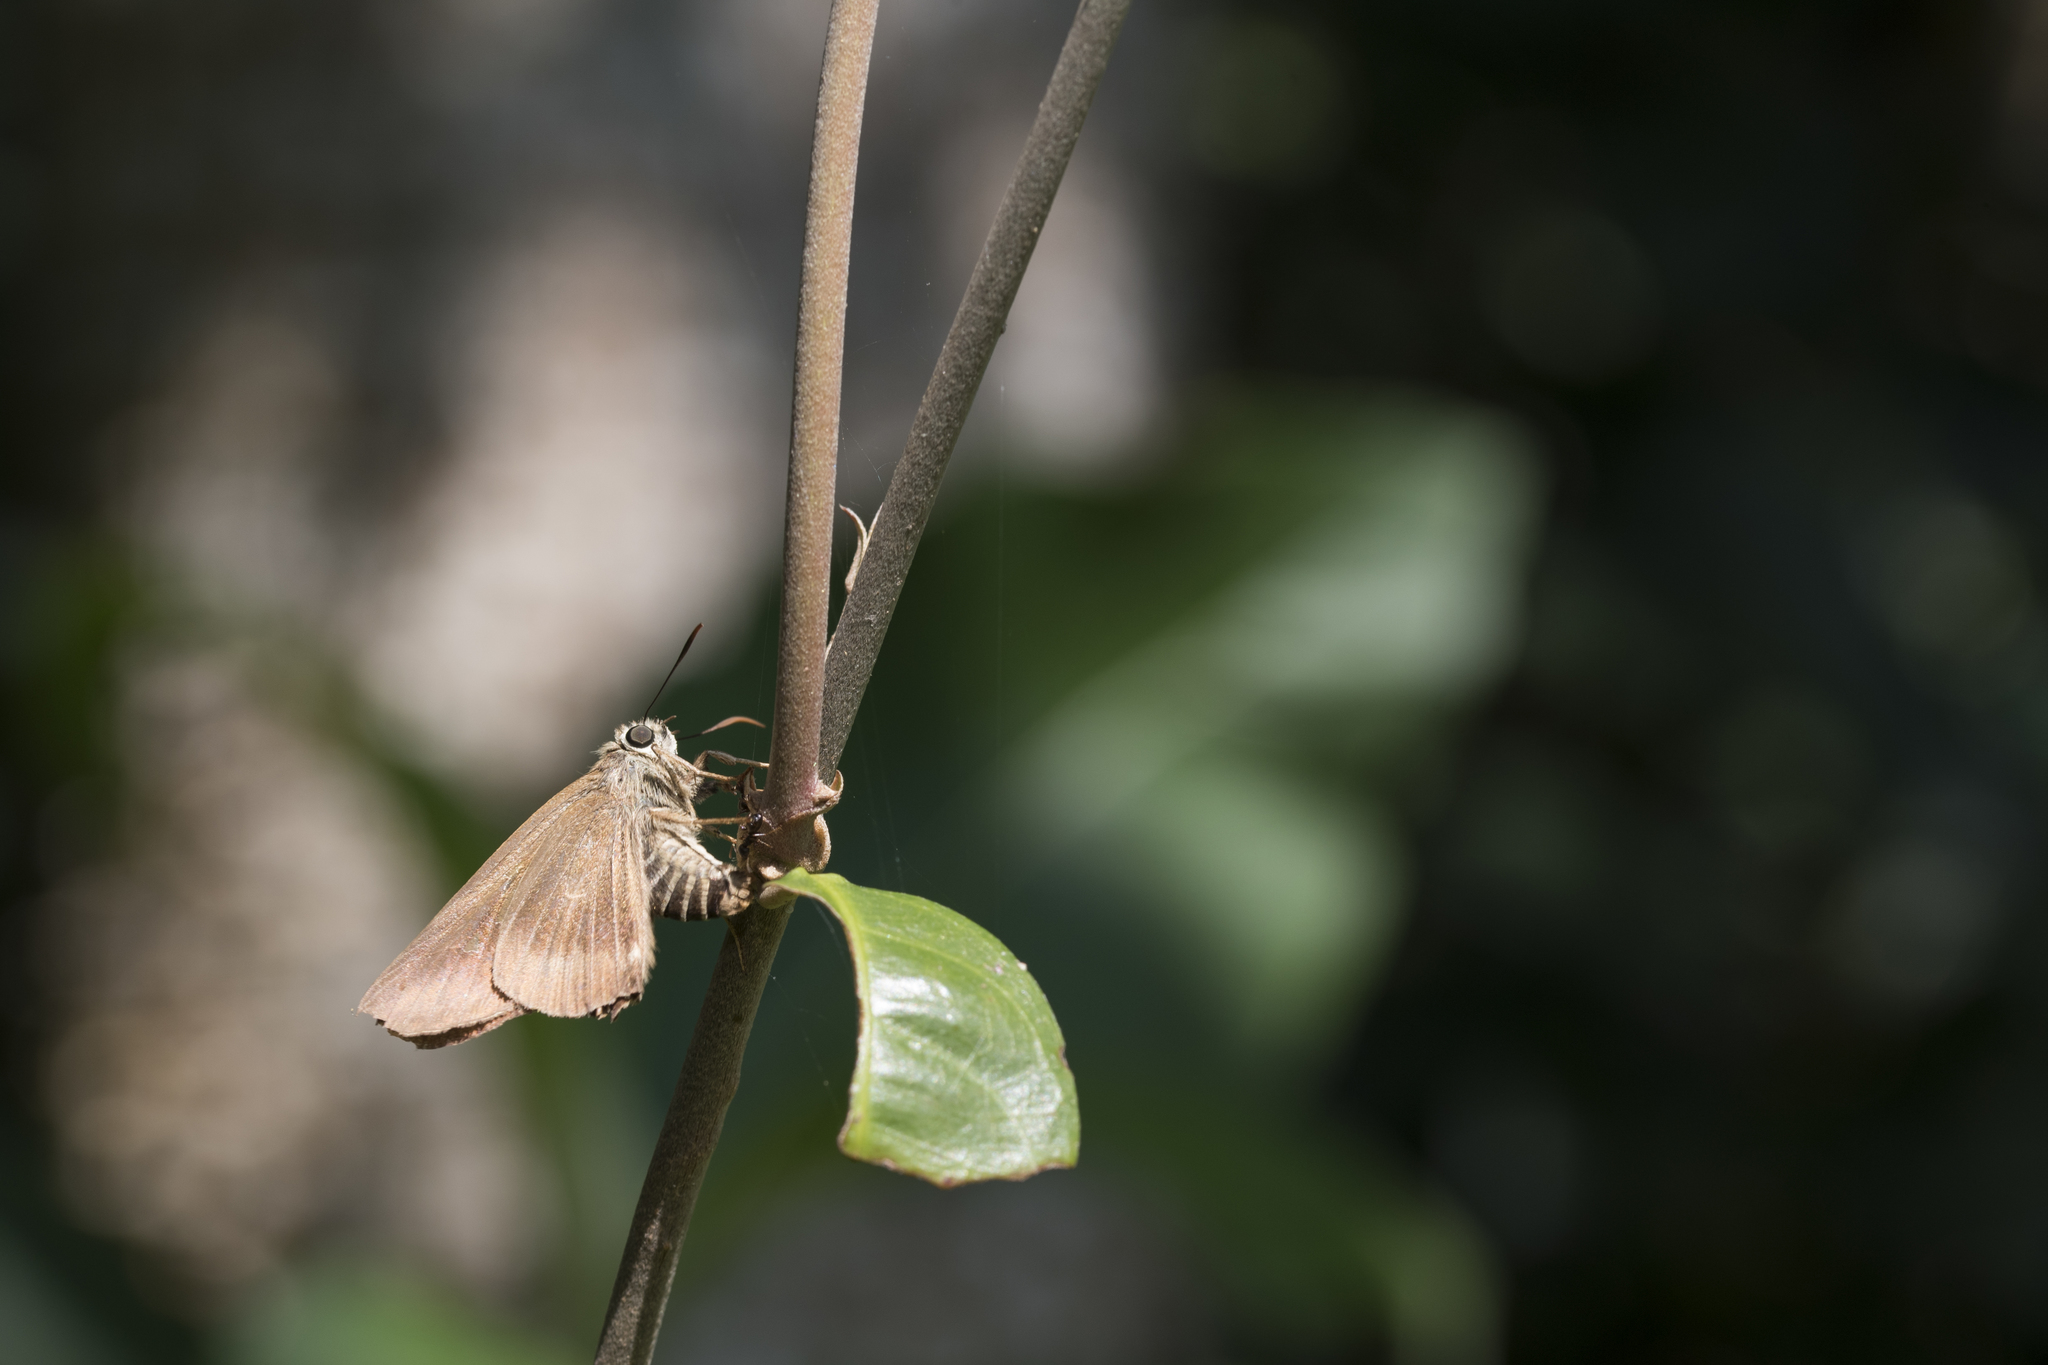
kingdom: Animalia
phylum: Arthropoda
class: Insecta
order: Lepidoptera
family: Hesperiidae
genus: Badamia
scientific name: Badamia exclamationis
